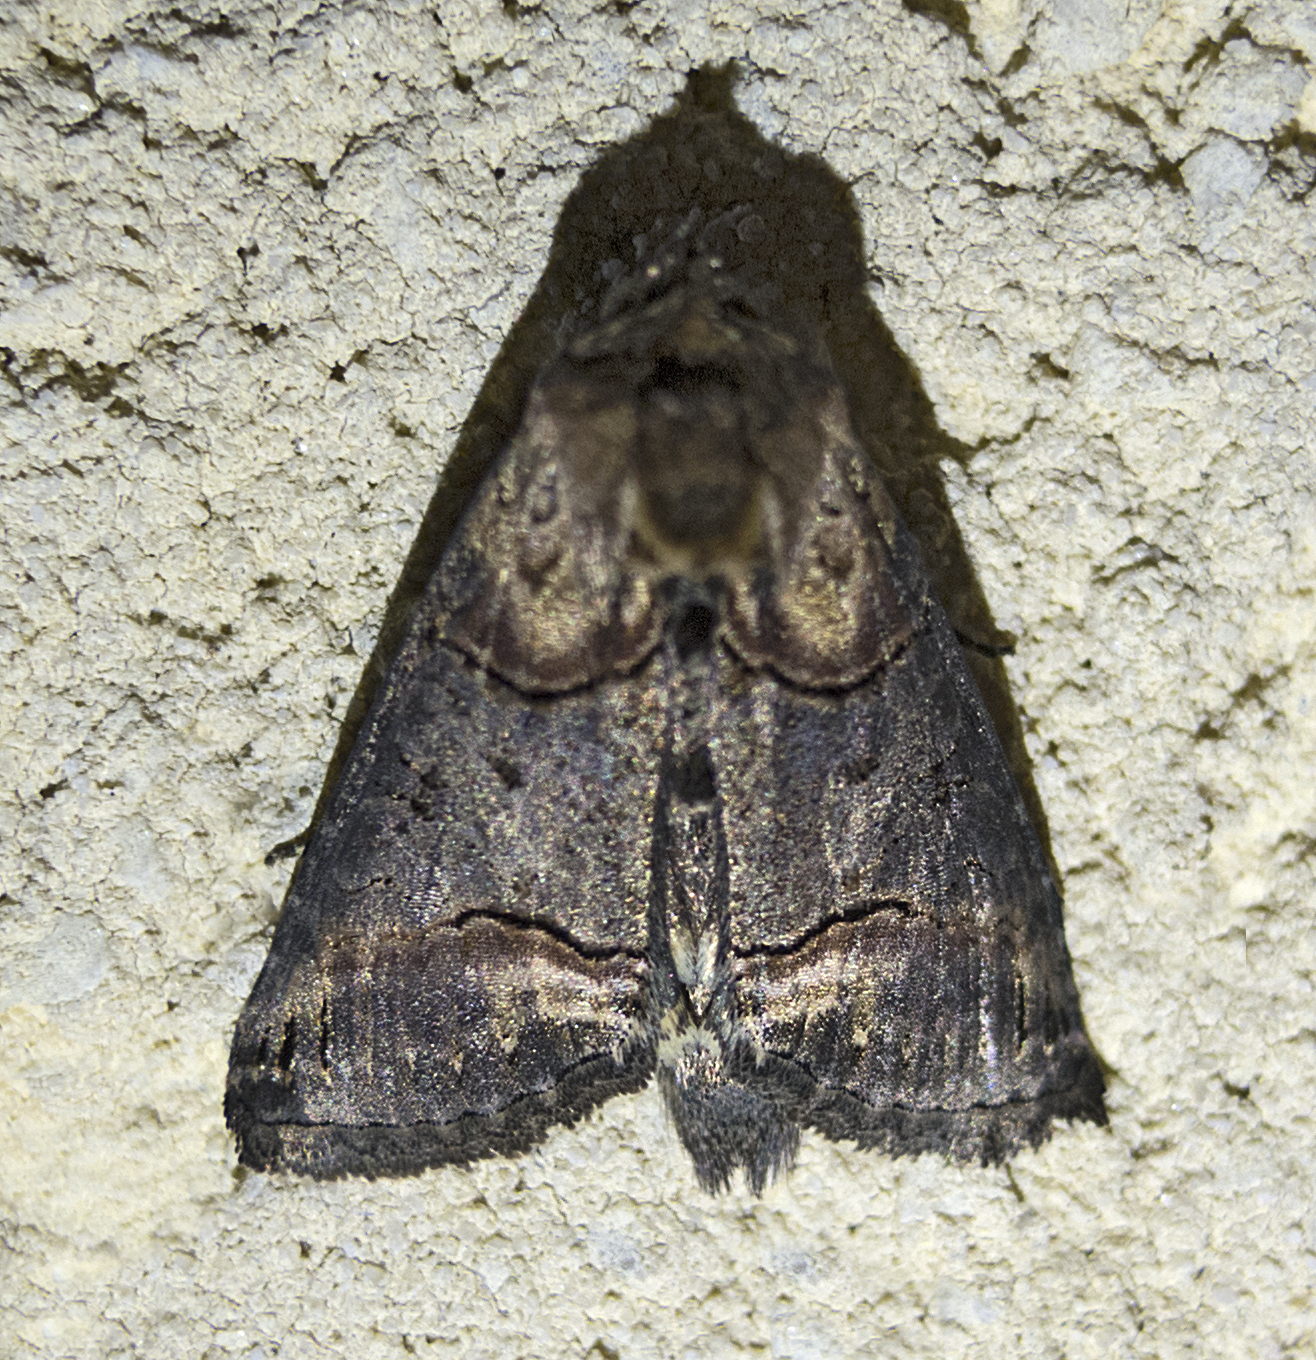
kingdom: Animalia
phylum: Arthropoda
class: Insecta
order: Lepidoptera
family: Noctuidae
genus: Abrostola
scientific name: Abrostola triplasia
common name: Dark spectacle
